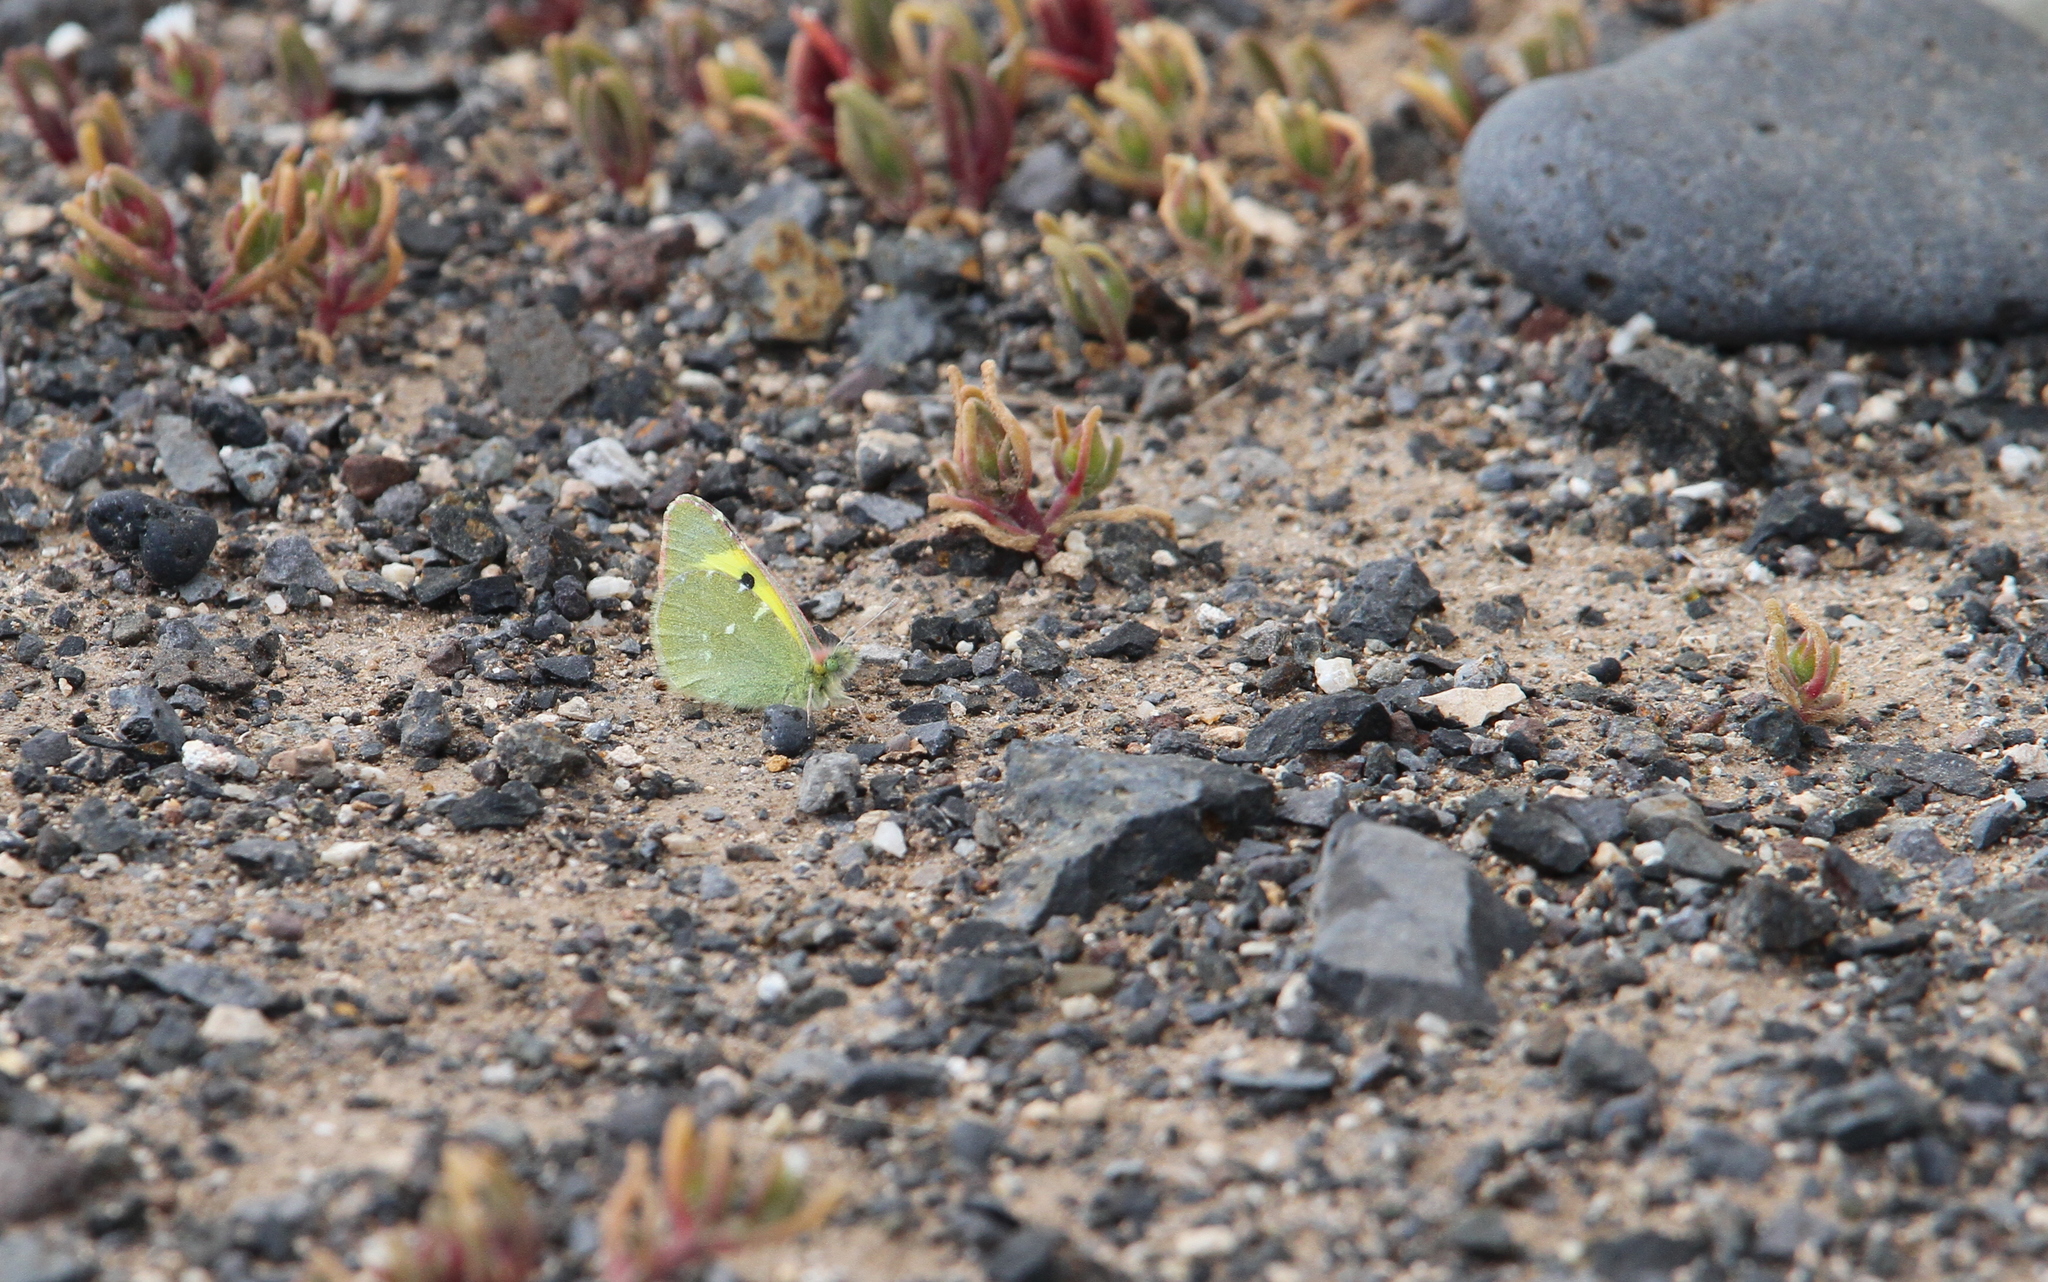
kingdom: Animalia
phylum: Arthropoda
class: Insecta
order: Lepidoptera
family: Pieridae
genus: Elphinstonia
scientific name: Elphinstonia charlonia
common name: Greenish black-tip
